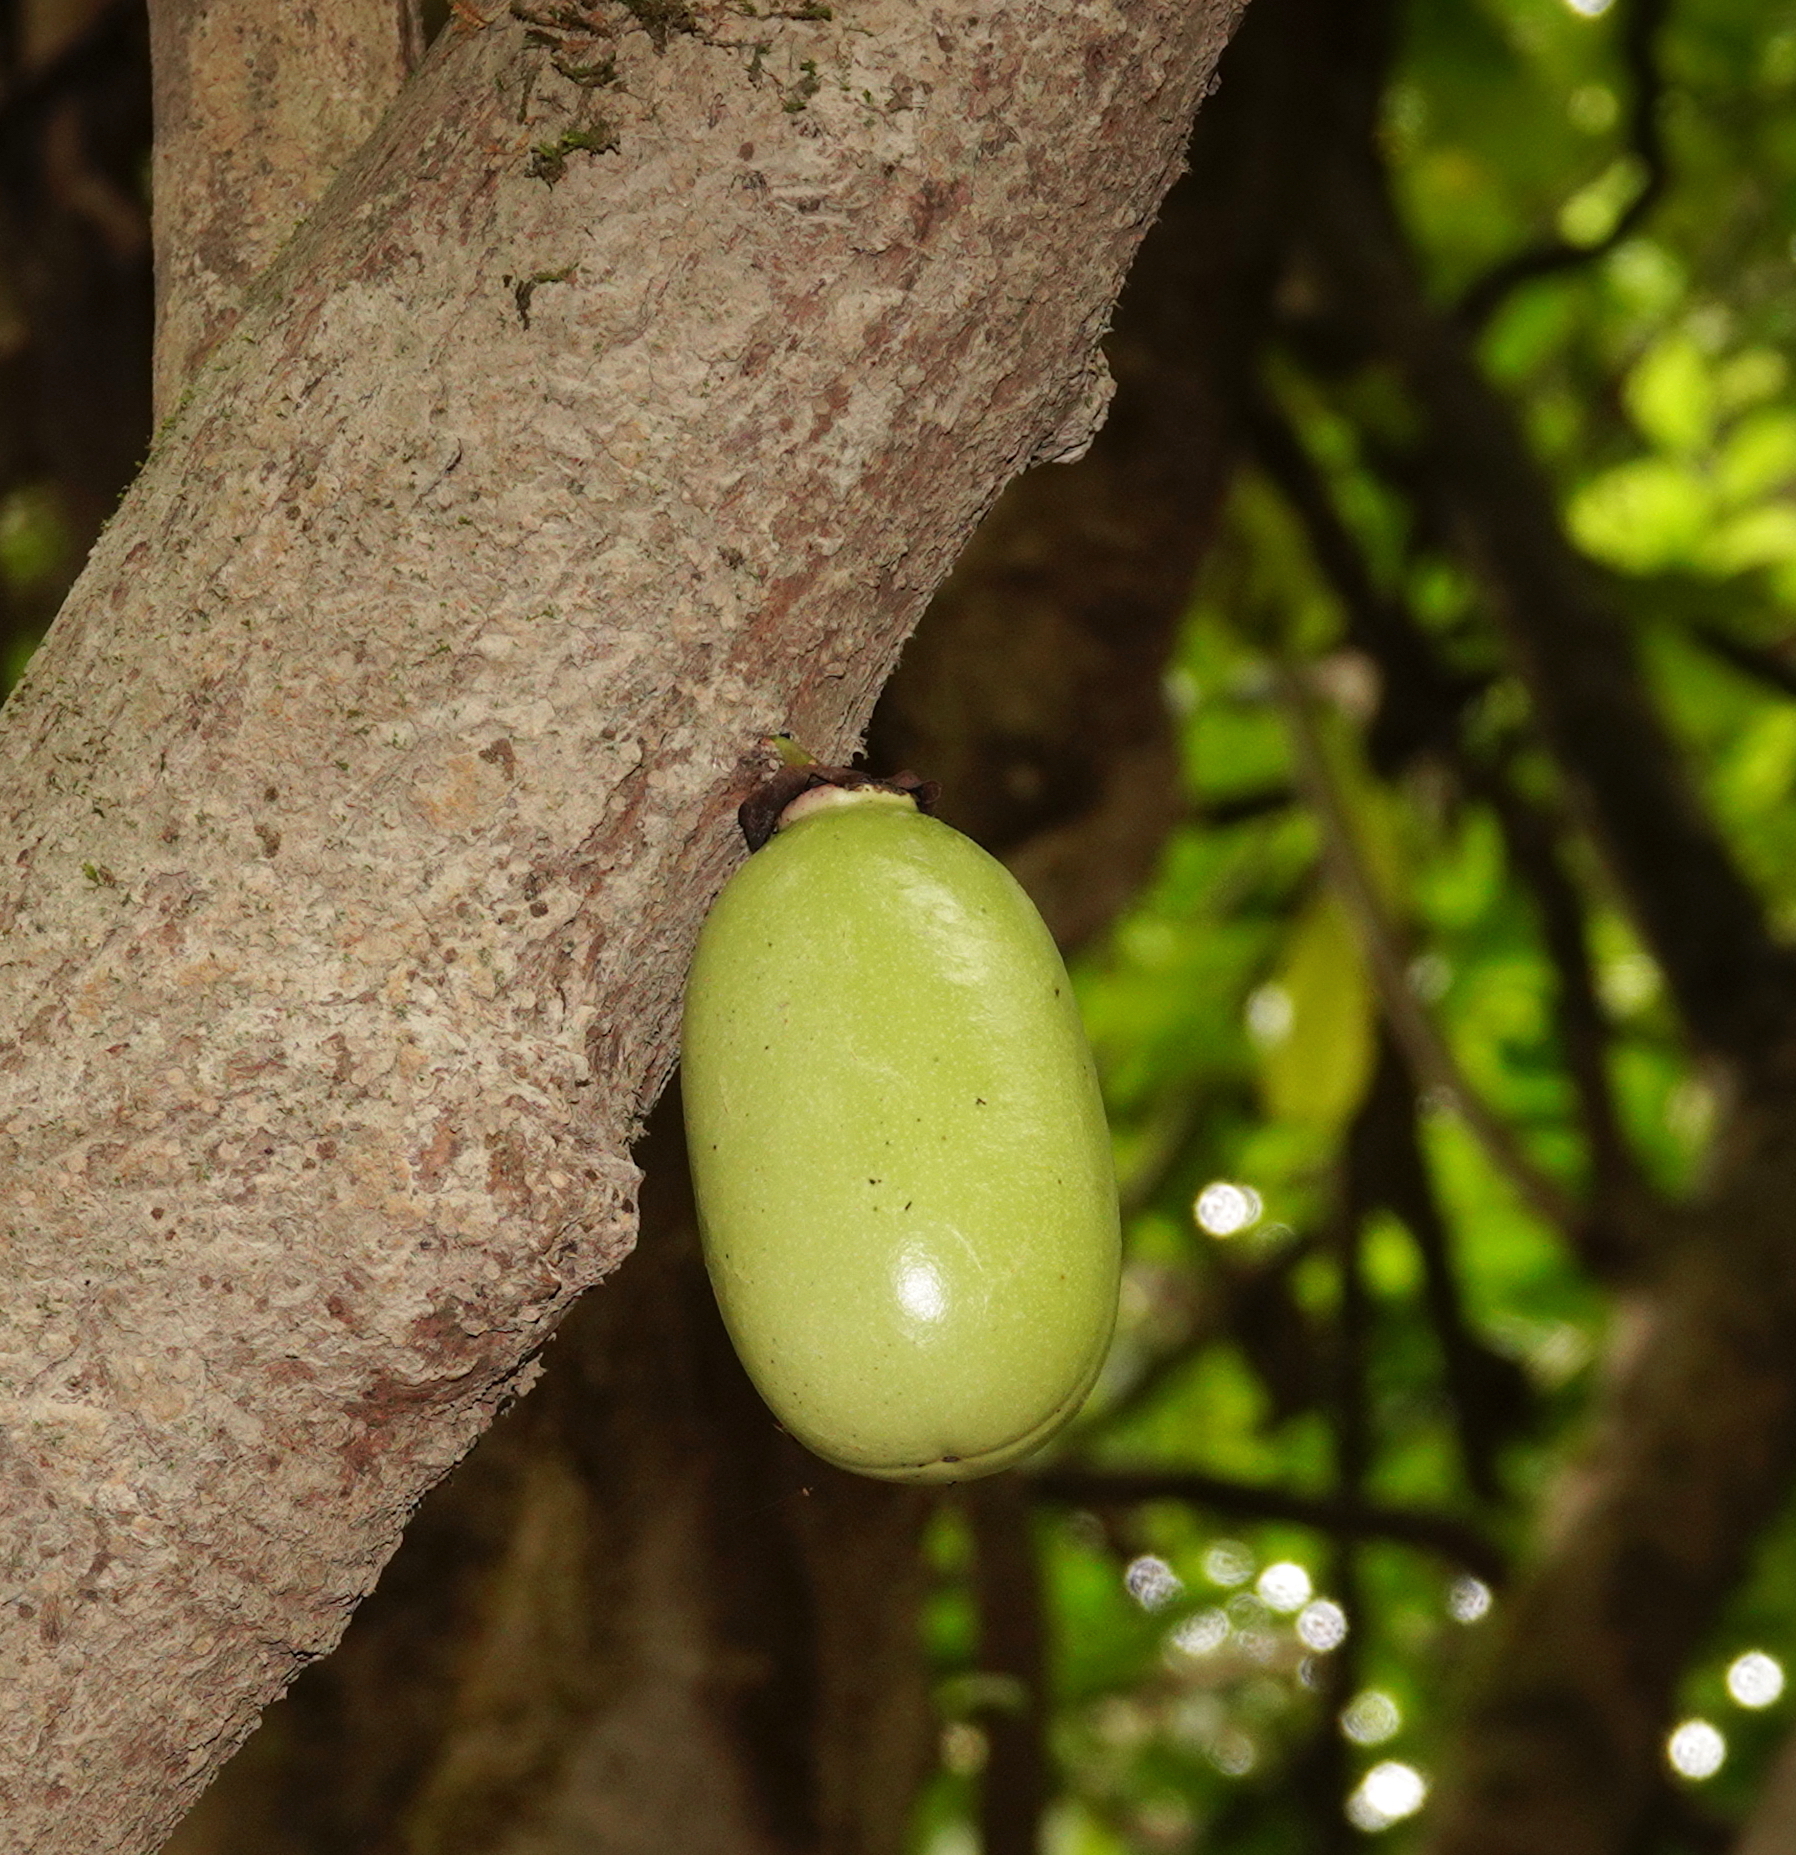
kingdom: Plantae
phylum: Tracheophyta
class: Magnoliopsida
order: Lamiales
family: Bignoniaceae
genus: Crescentia
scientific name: Crescentia cujete
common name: Calabash
